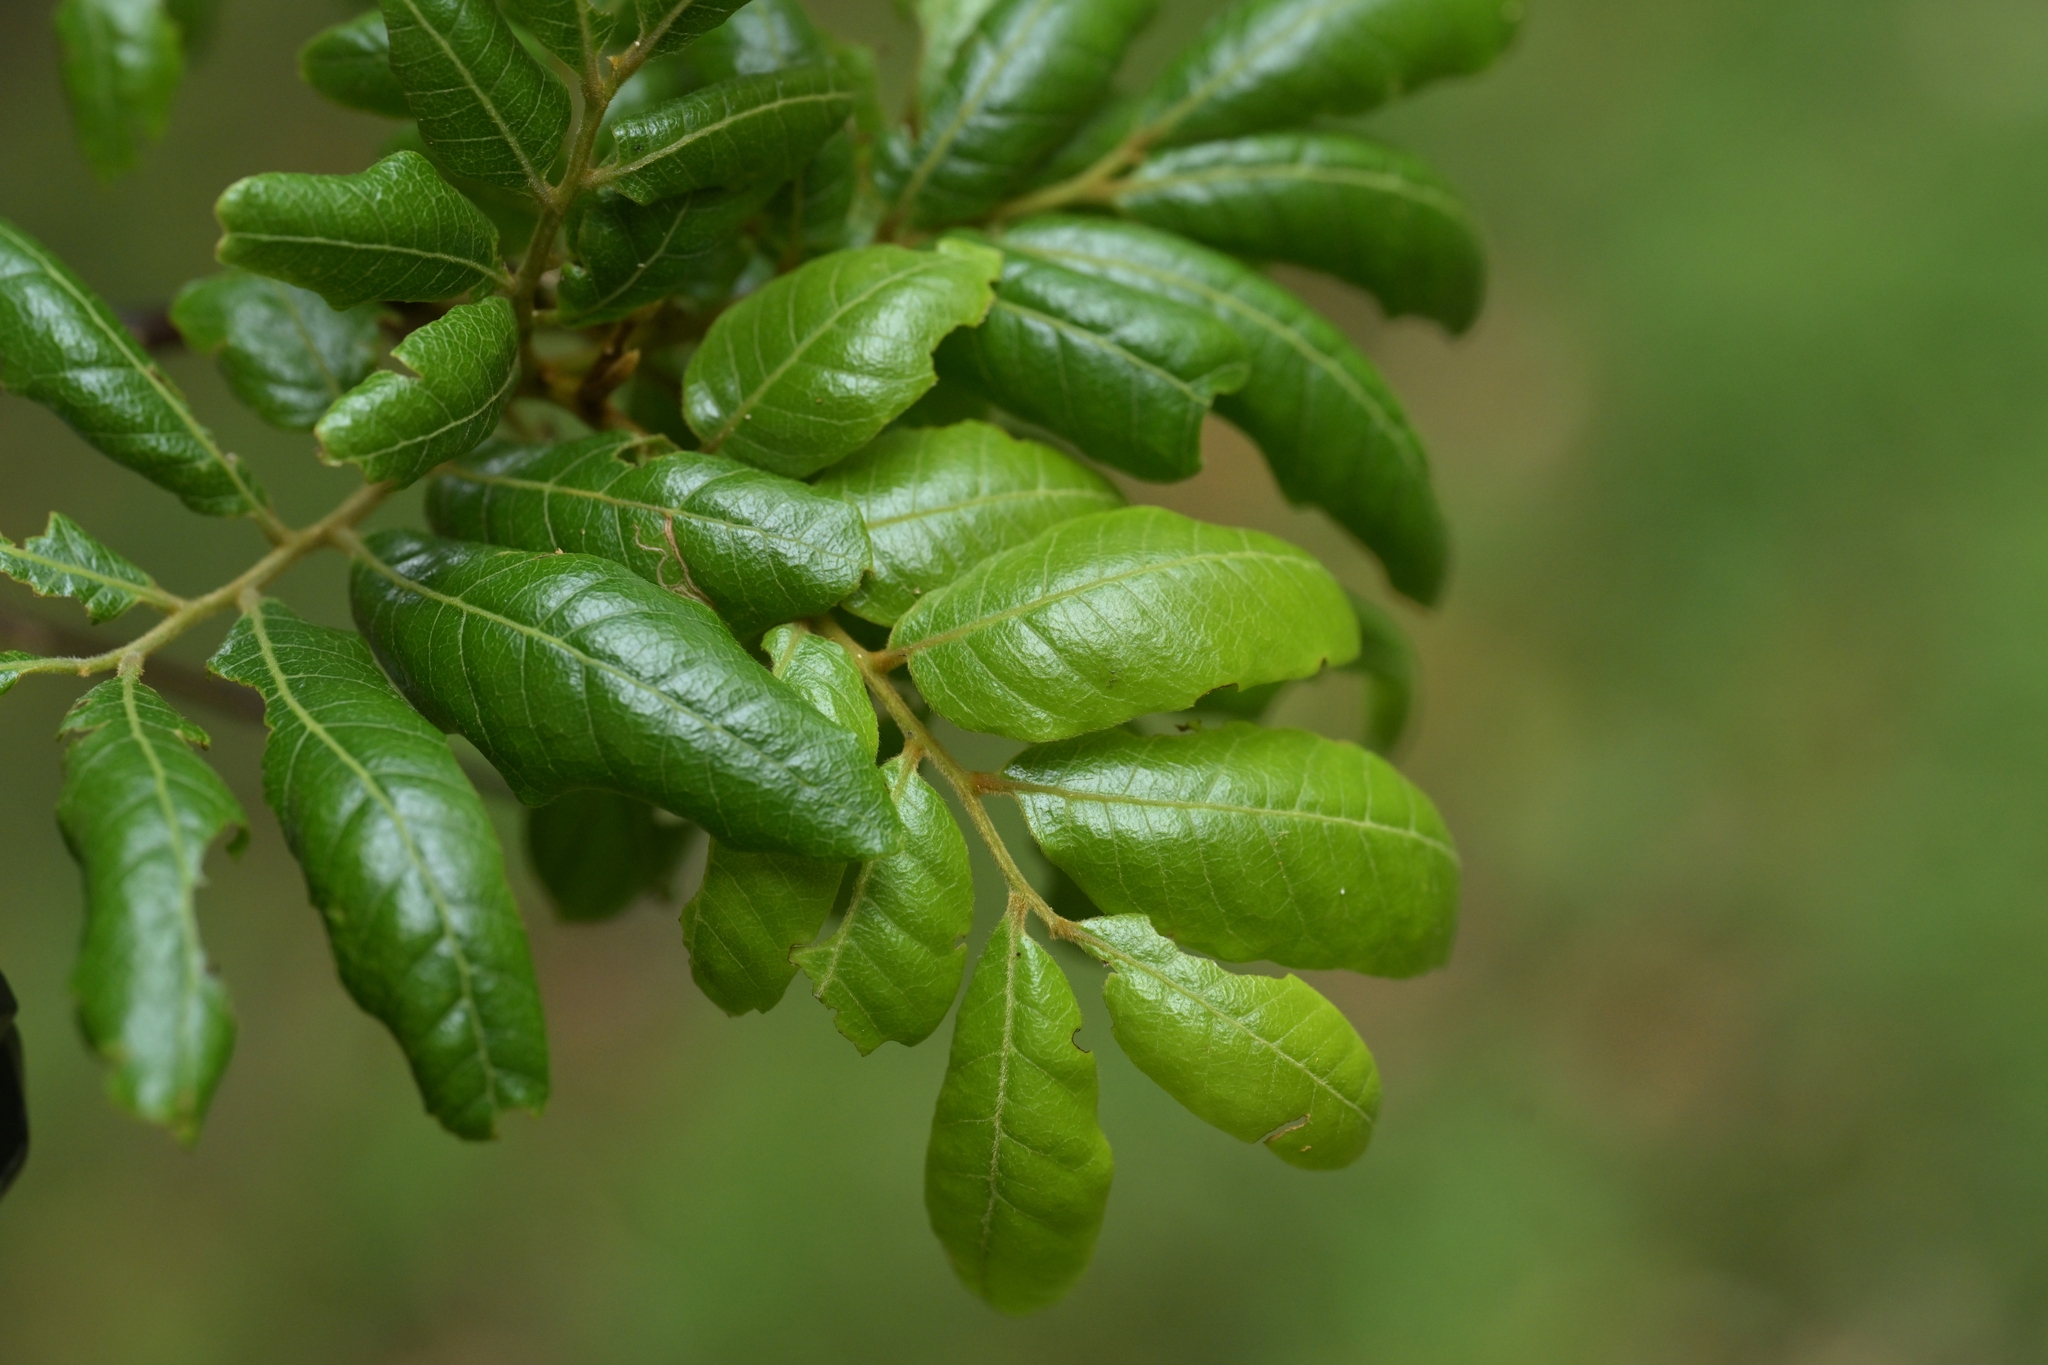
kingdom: Plantae
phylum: Tracheophyta
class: Magnoliopsida
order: Sapindales
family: Sapindaceae
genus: Alectryon
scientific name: Alectryon excelsus
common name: Three kings titoki
